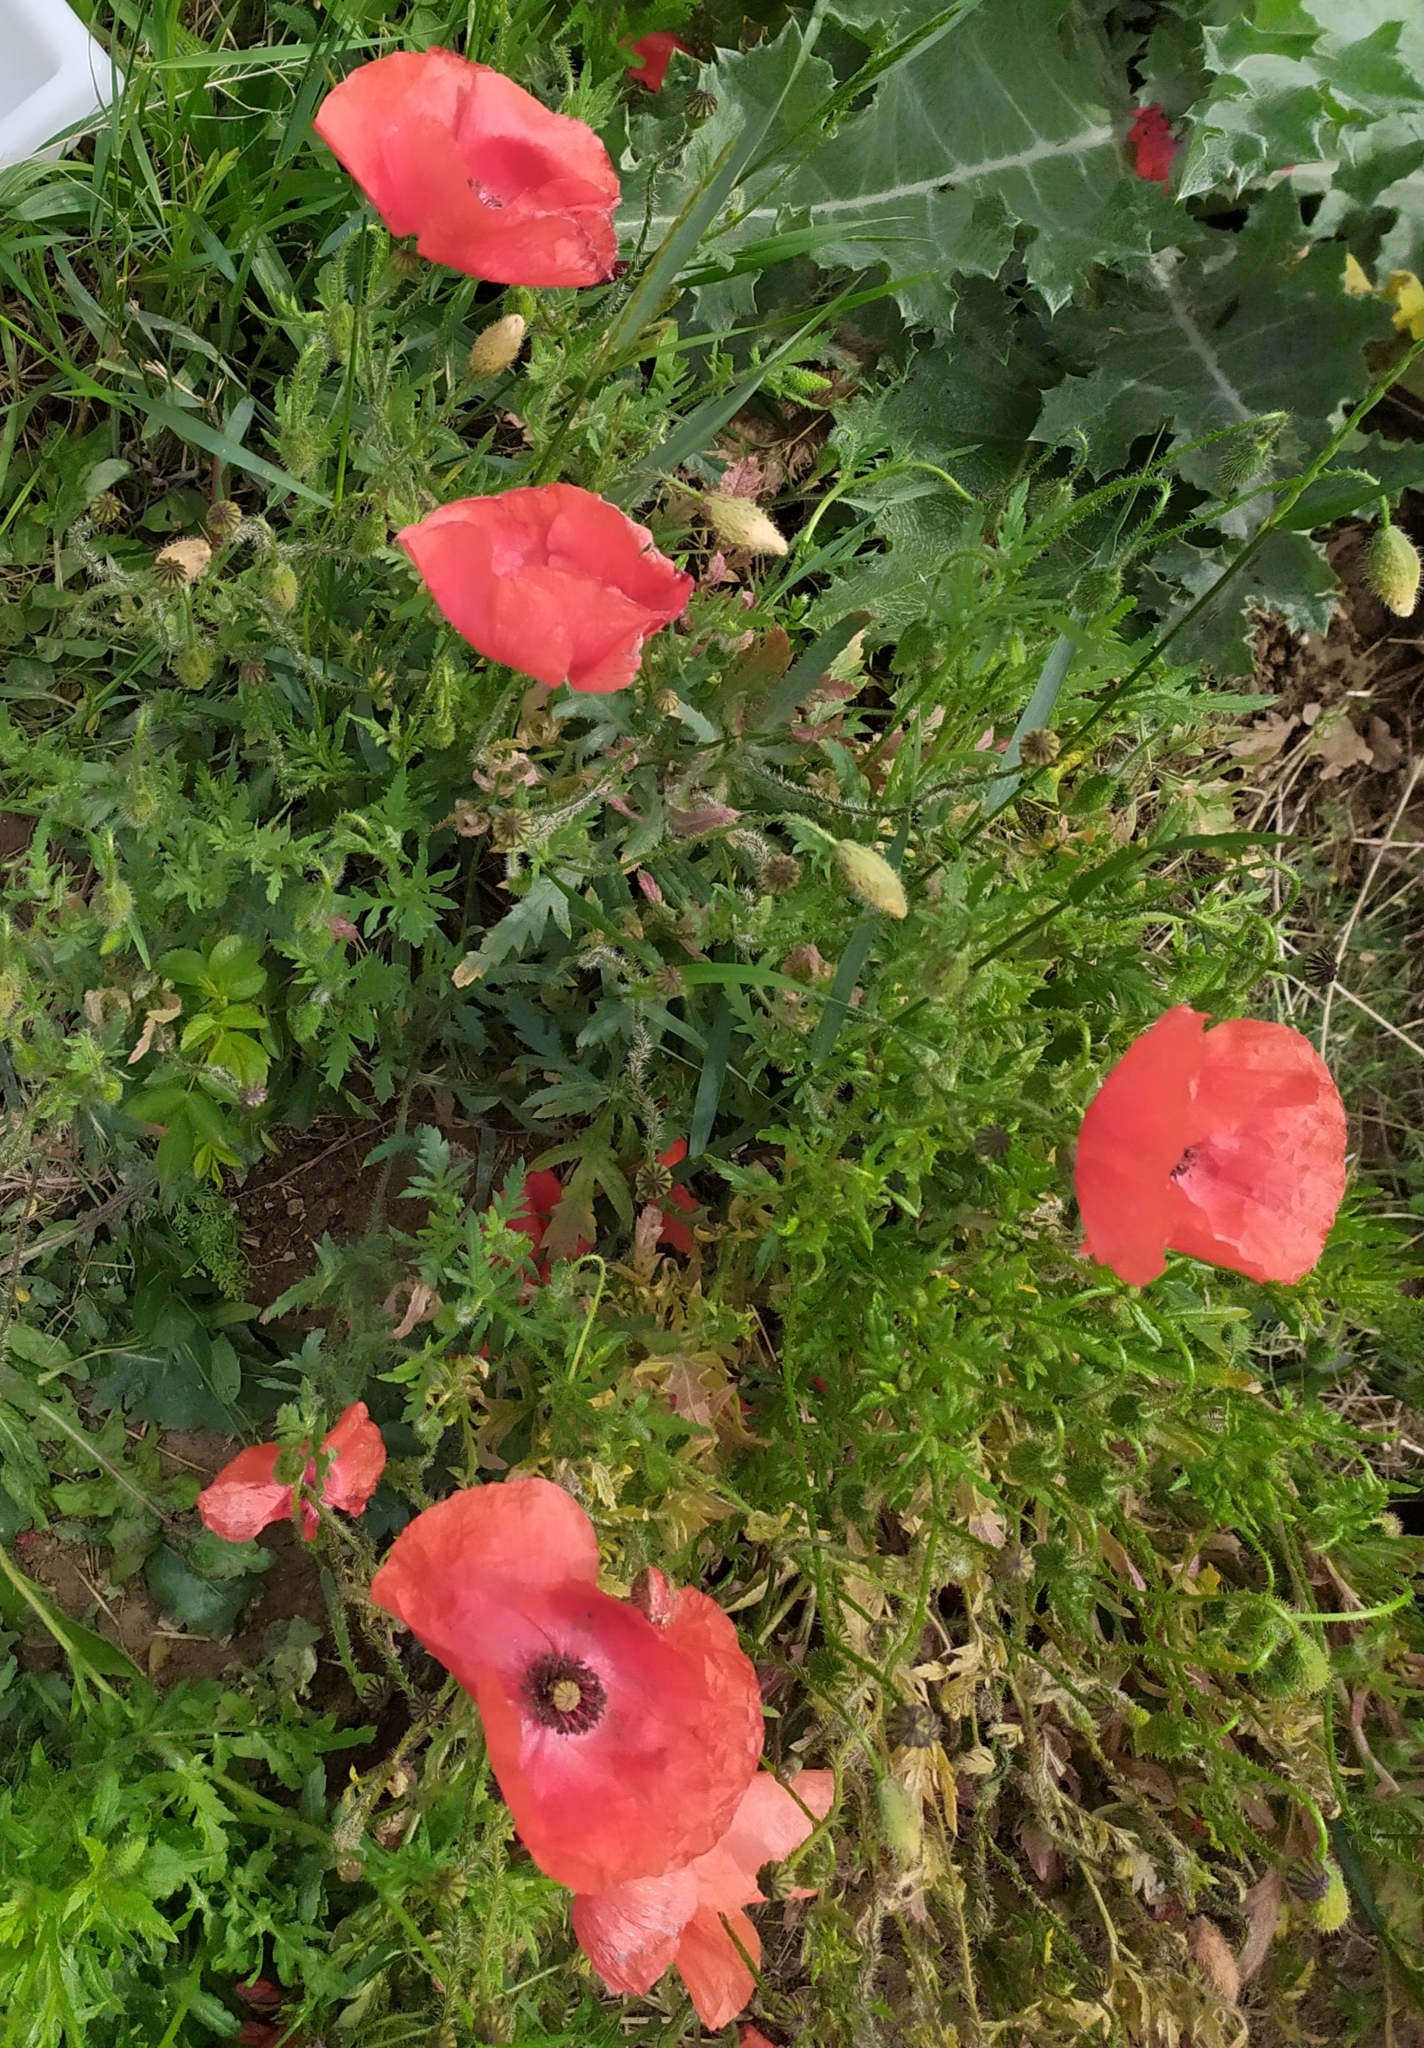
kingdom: Plantae
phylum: Tracheophyta
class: Magnoliopsida
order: Ranunculales
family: Papaveraceae
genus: Papaver
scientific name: Papaver rhoeas
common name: Corn poppy
